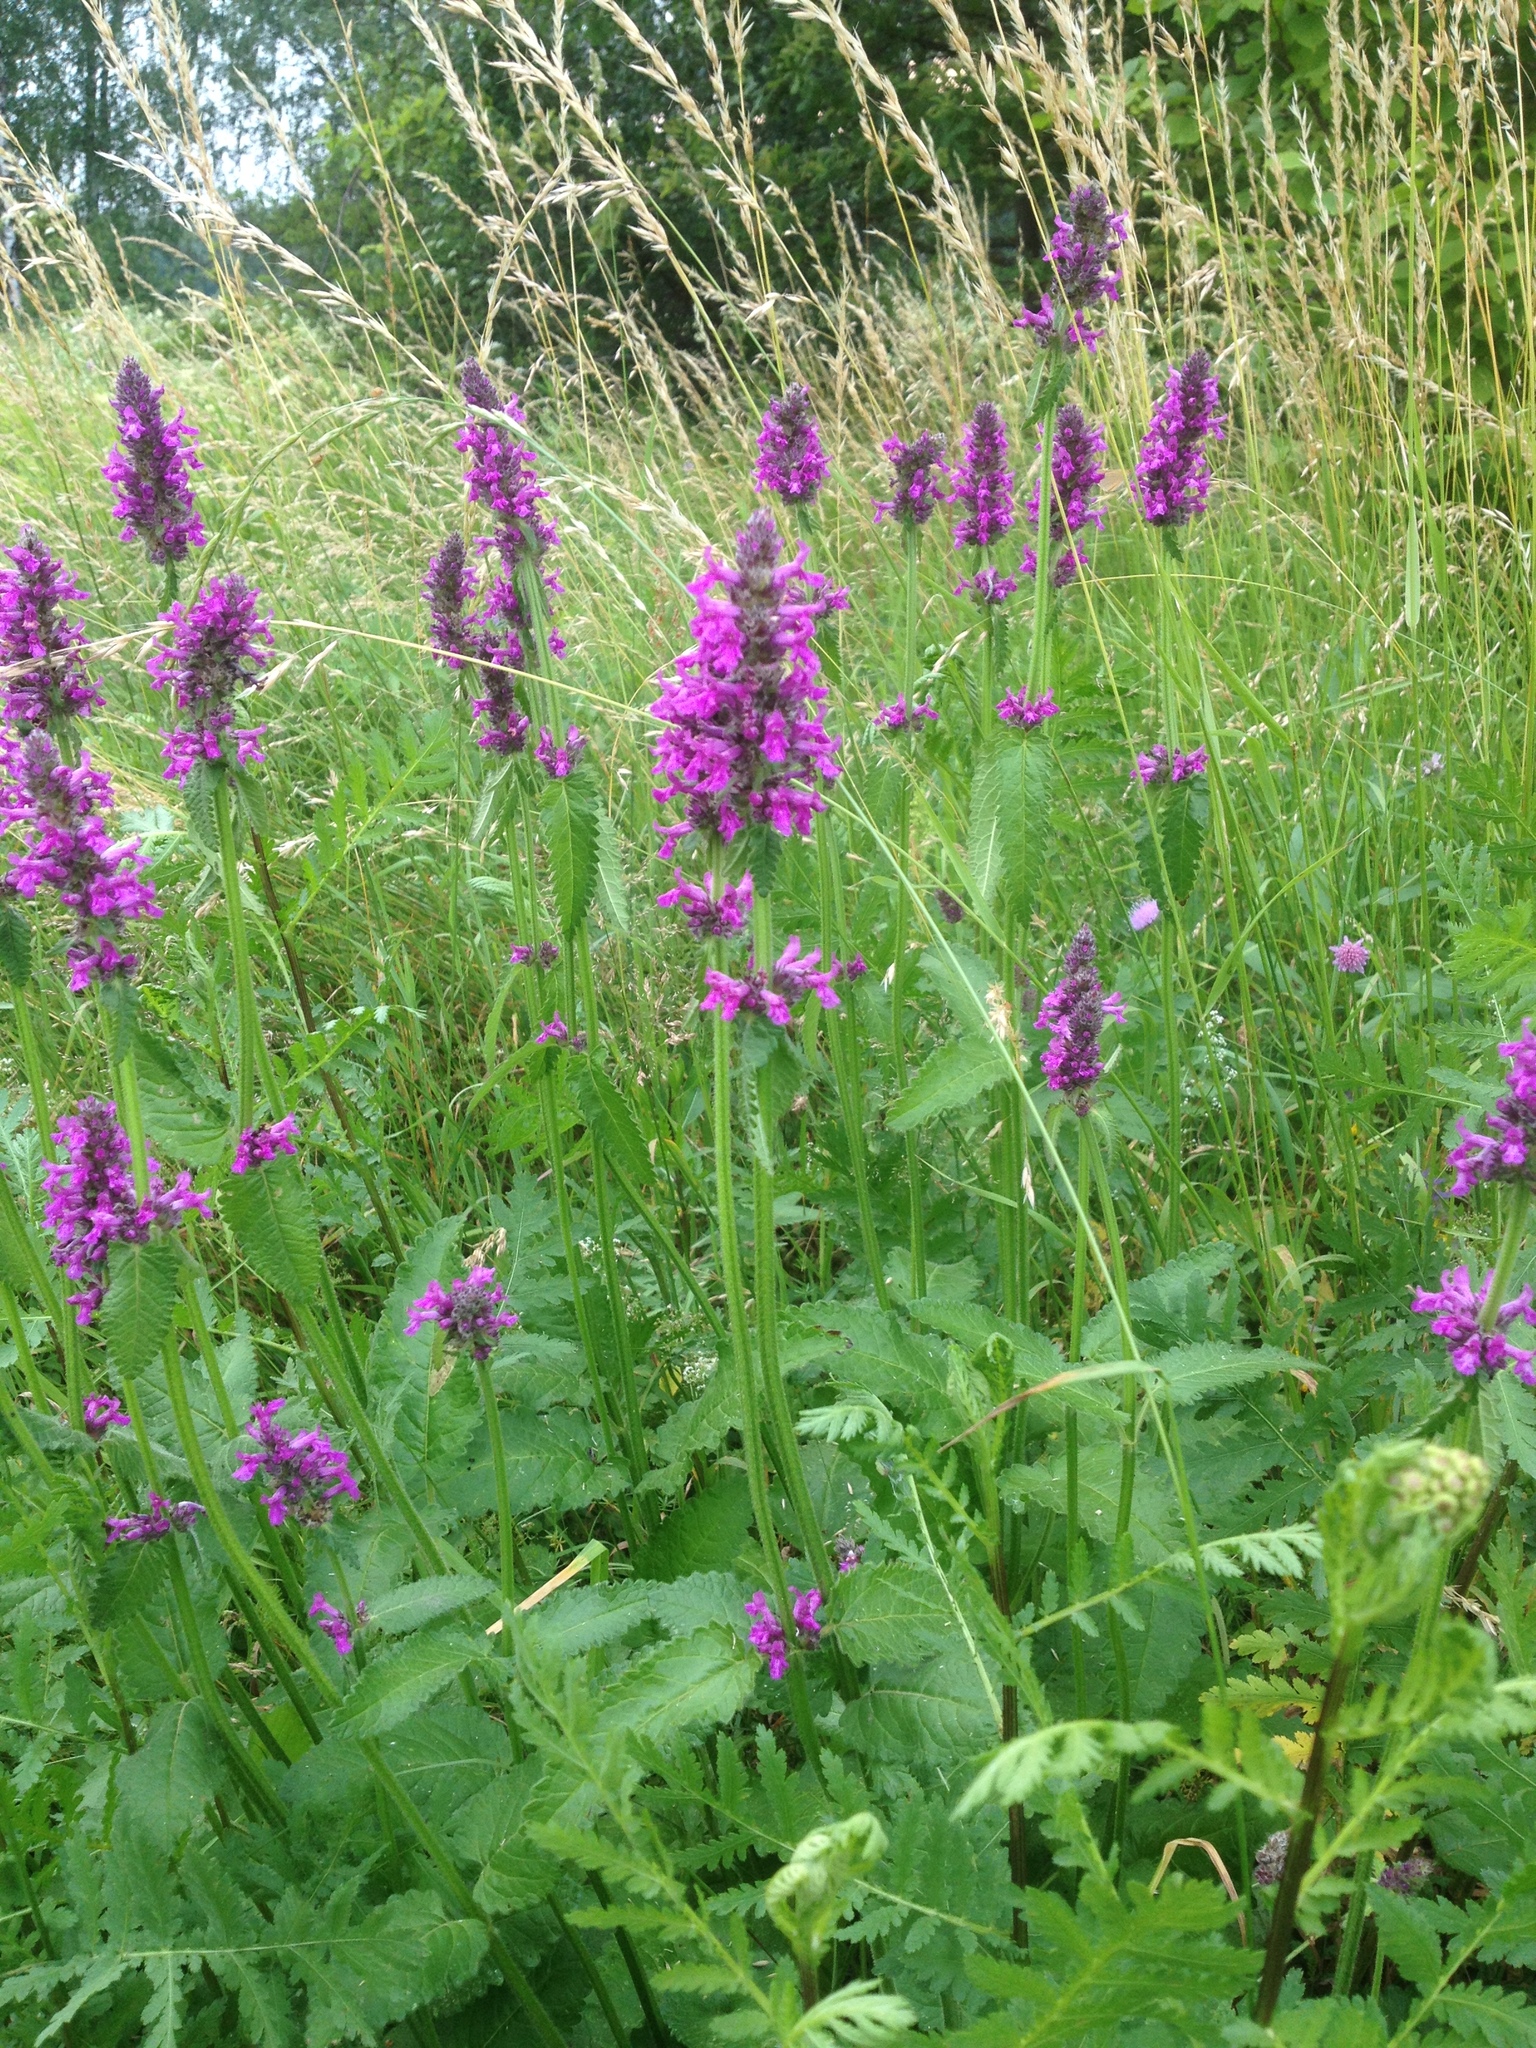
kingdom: Plantae
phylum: Tracheophyta
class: Magnoliopsida
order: Lamiales
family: Lamiaceae
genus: Betonica
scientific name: Betonica officinalis
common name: Bishop's-wort
